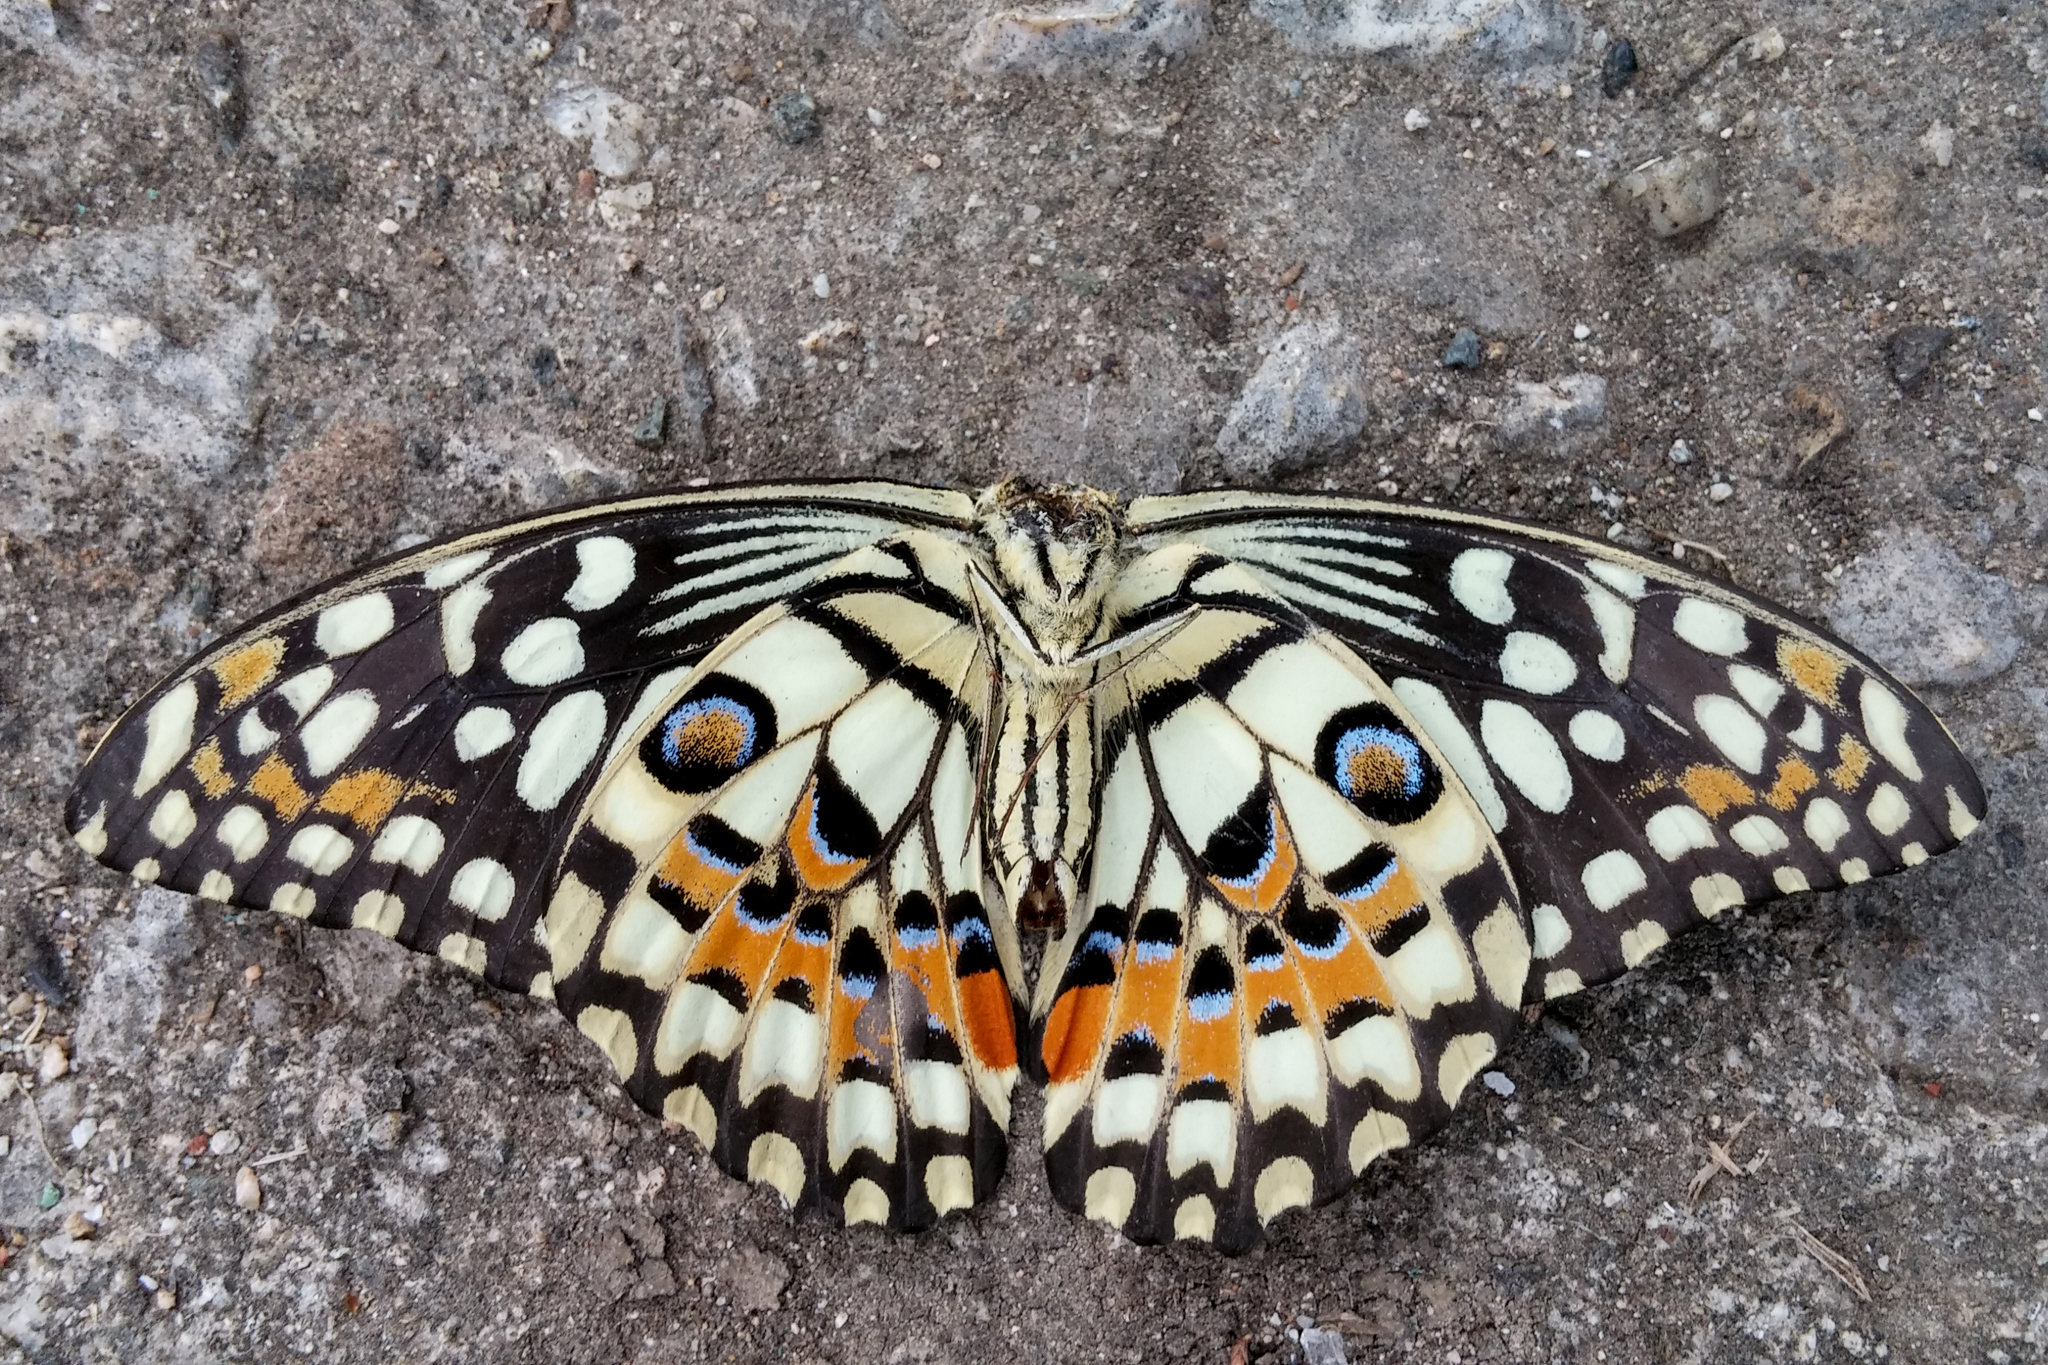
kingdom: Animalia
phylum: Arthropoda
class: Insecta
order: Lepidoptera
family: Papilionidae
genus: Papilio
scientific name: Papilio demoleus
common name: Lime butterfly
